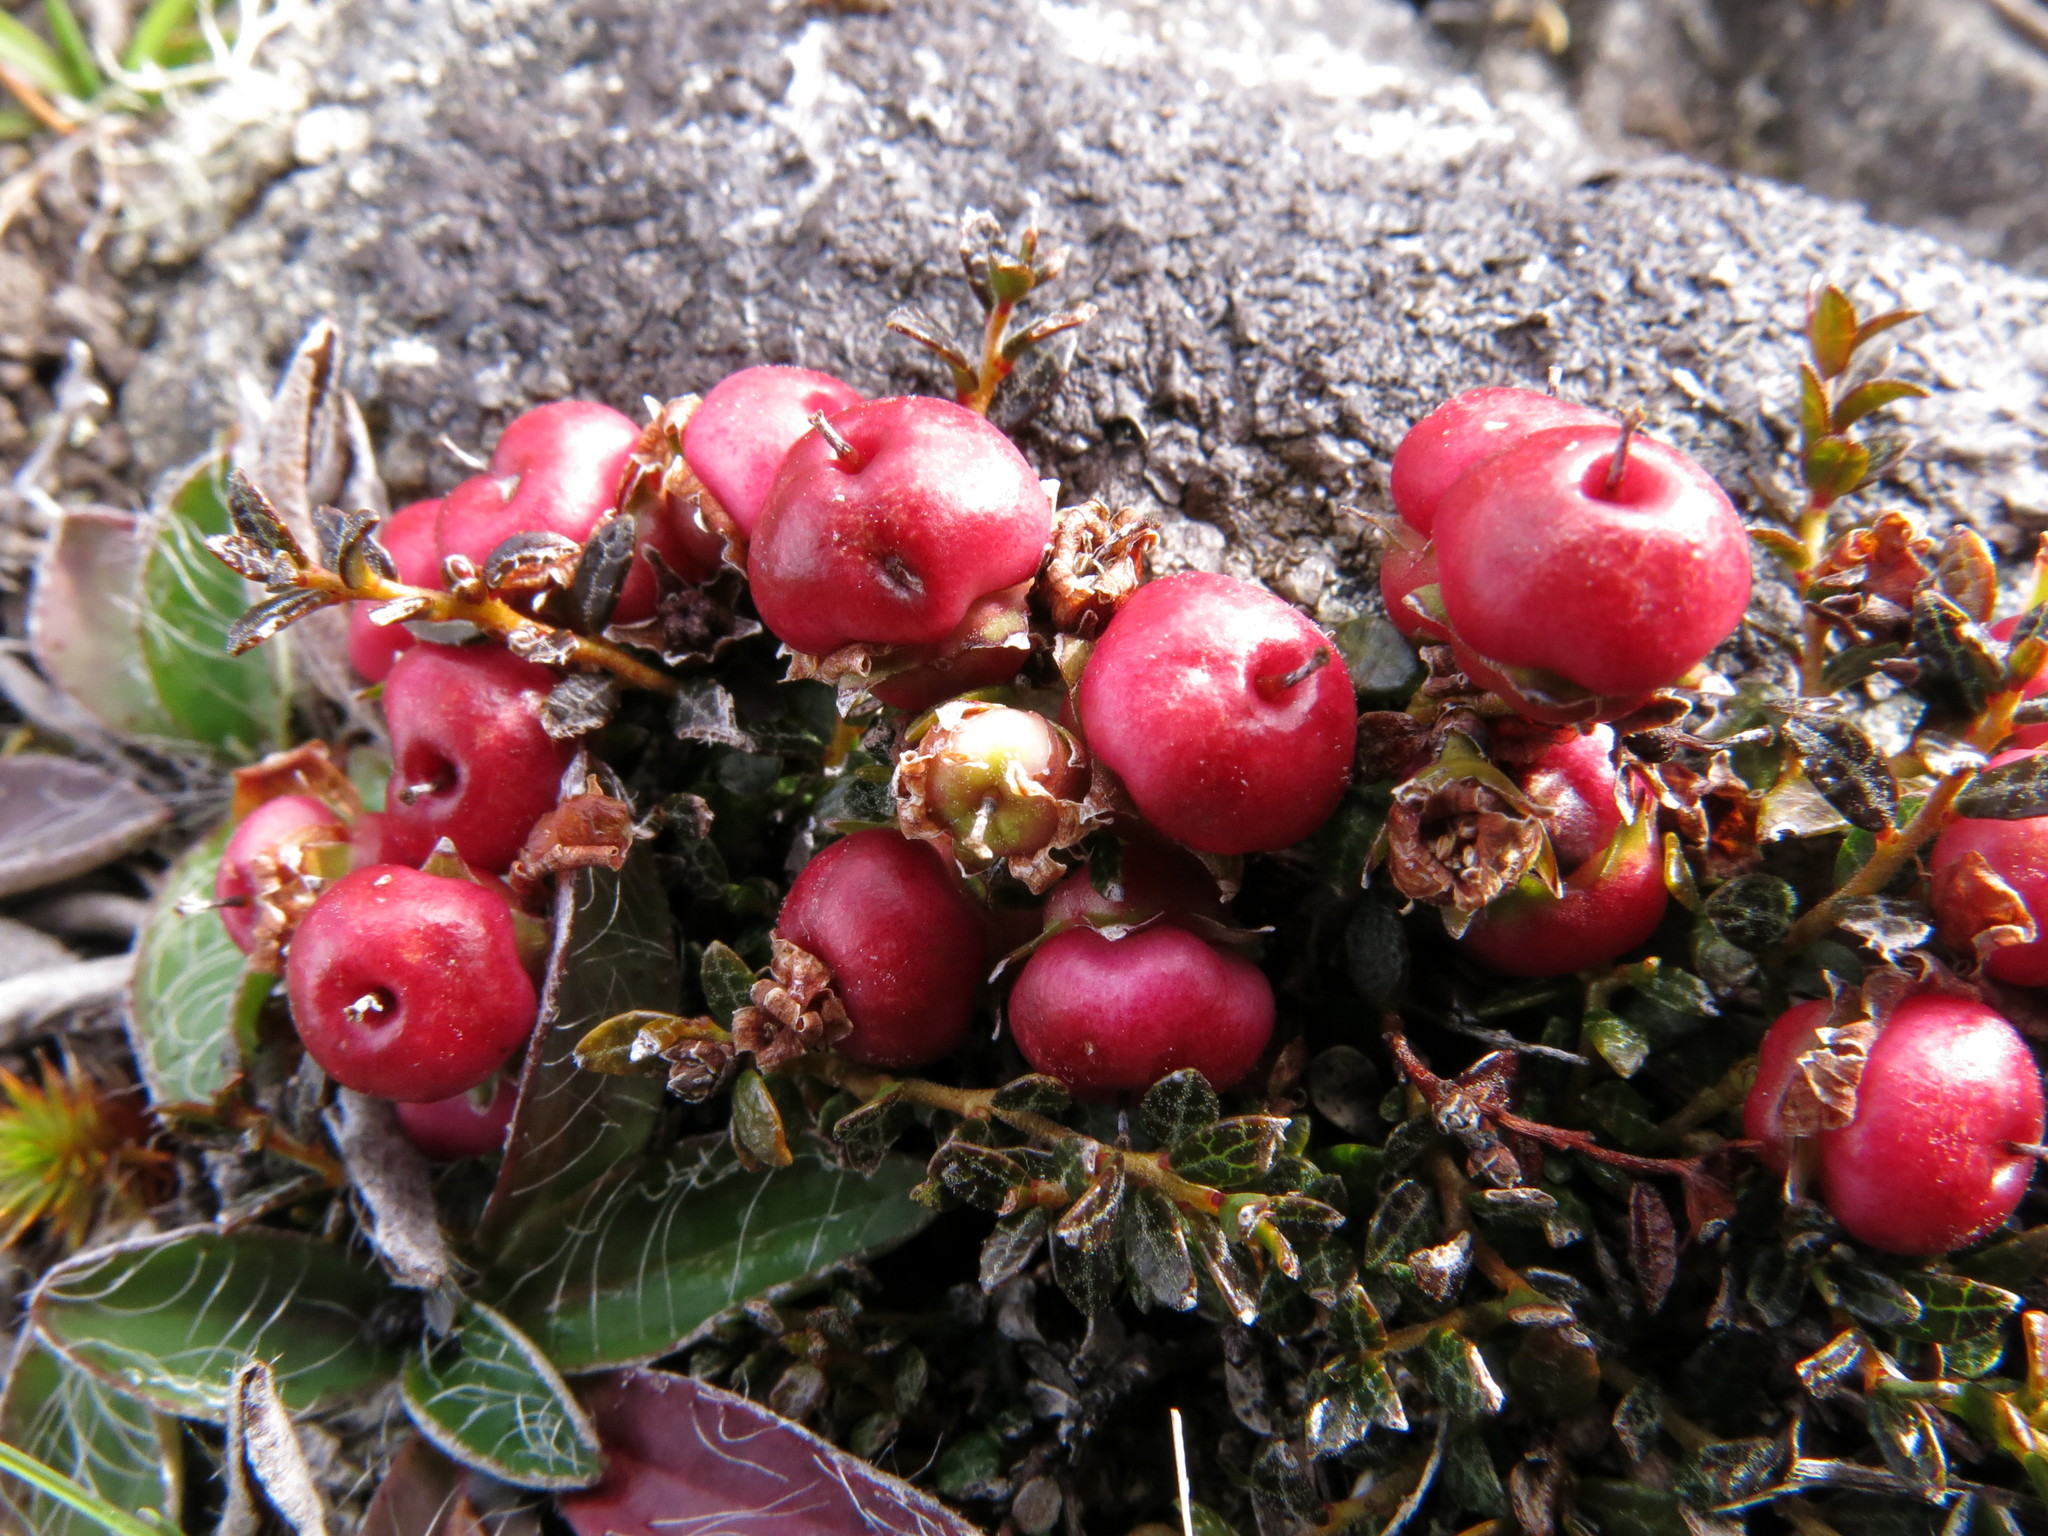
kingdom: Plantae
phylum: Tracheophyta
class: Magnoliopsida
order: Ericales
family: Ericaceae
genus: Gaultheria
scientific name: Gaultheria parvula
